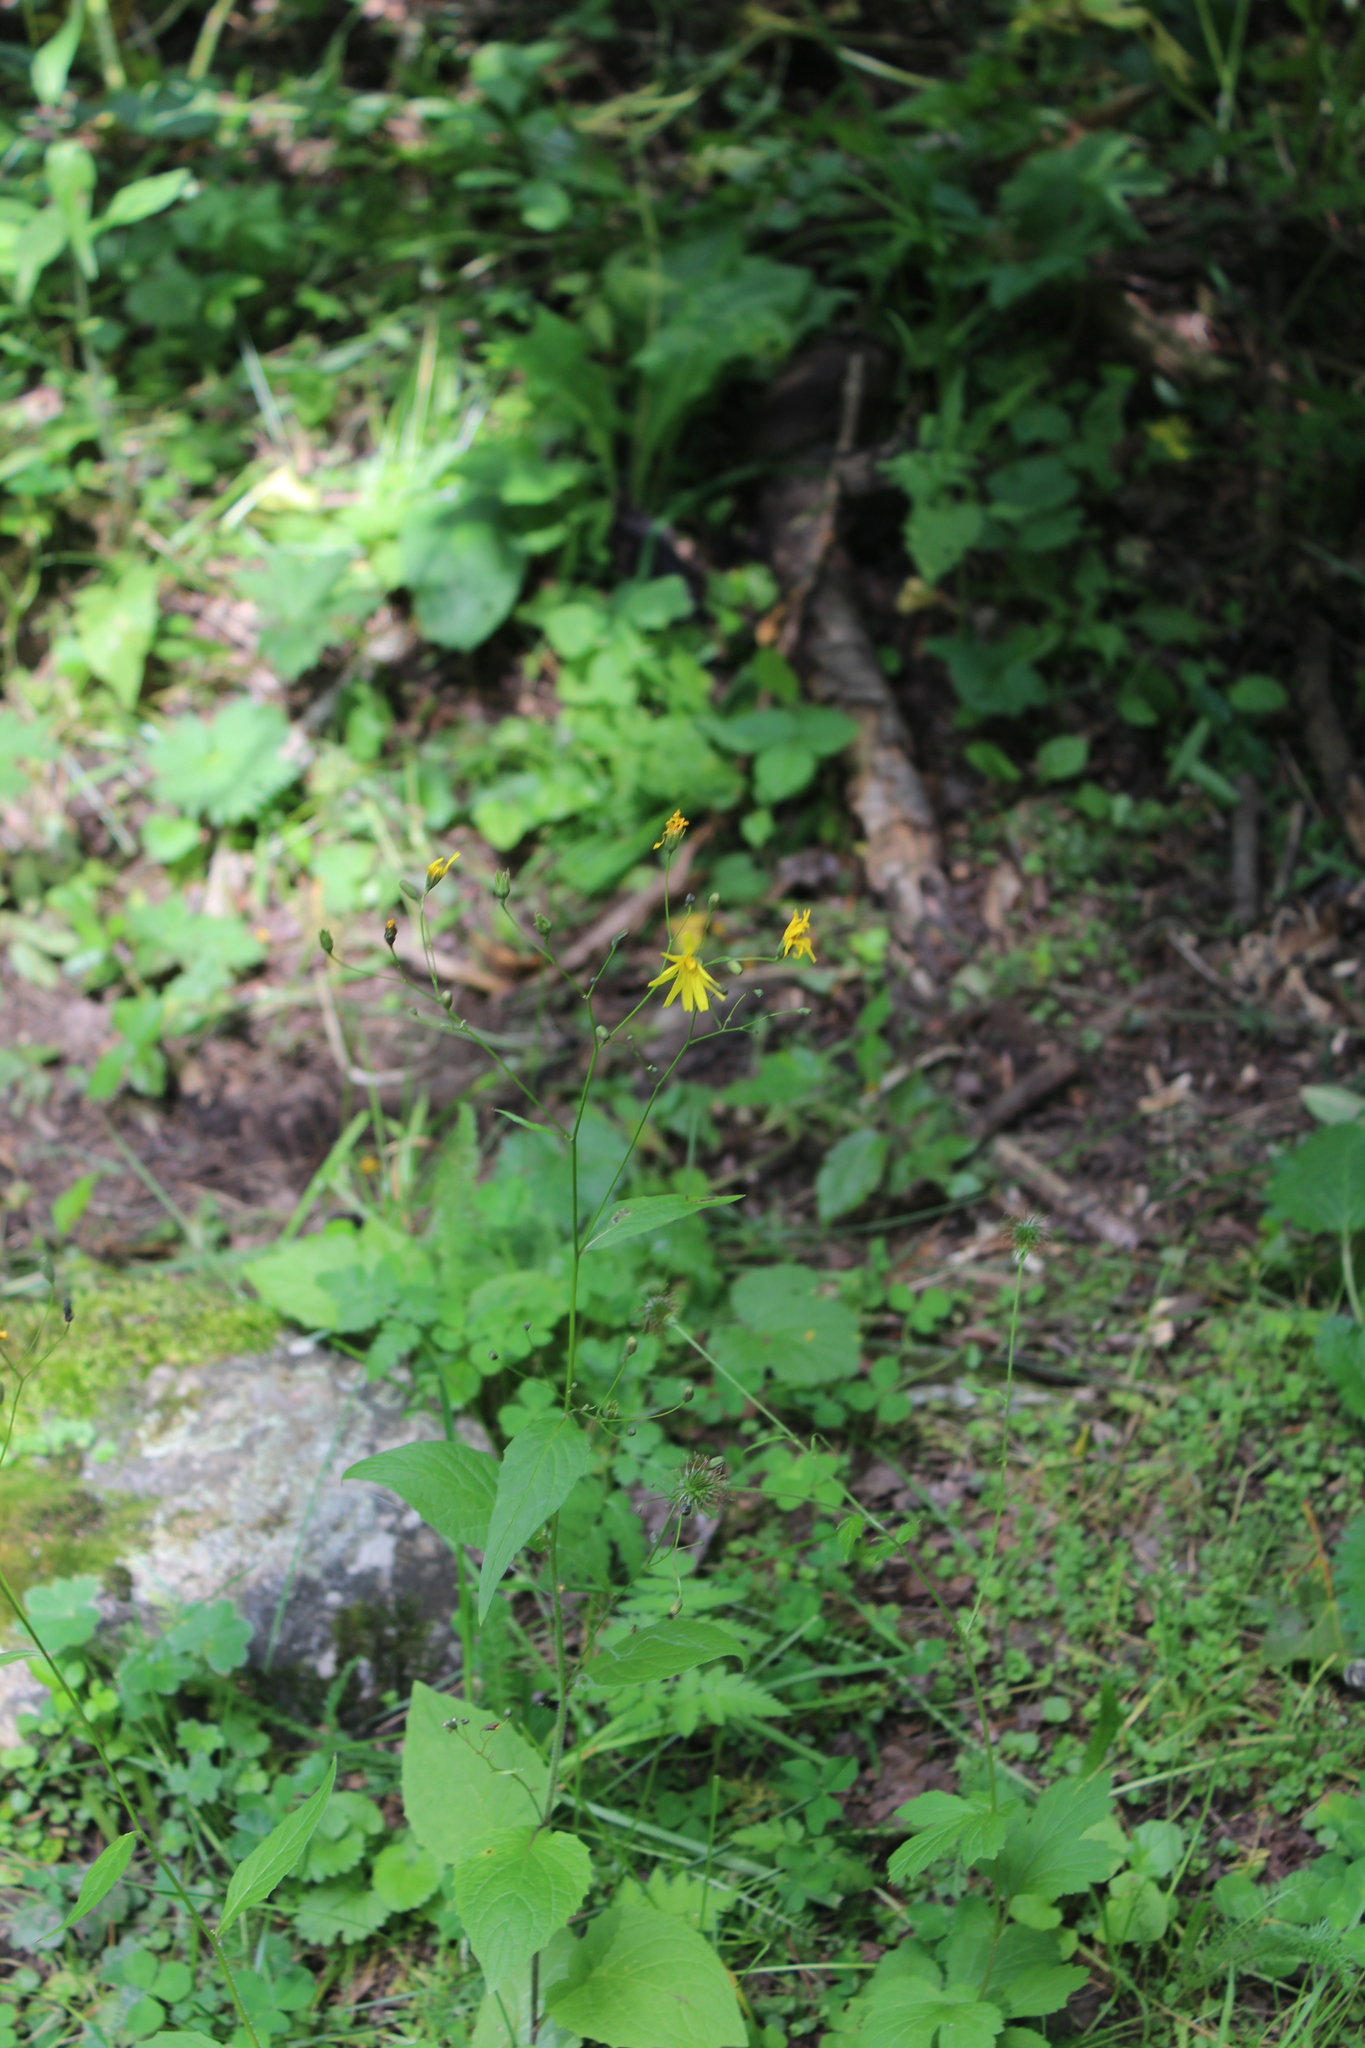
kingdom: Plantae
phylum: Tracheophyta
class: Magnoliopsida
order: Asterales
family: Asteraceae
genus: Lapsana
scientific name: Lapsana communis
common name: Nipplewort
